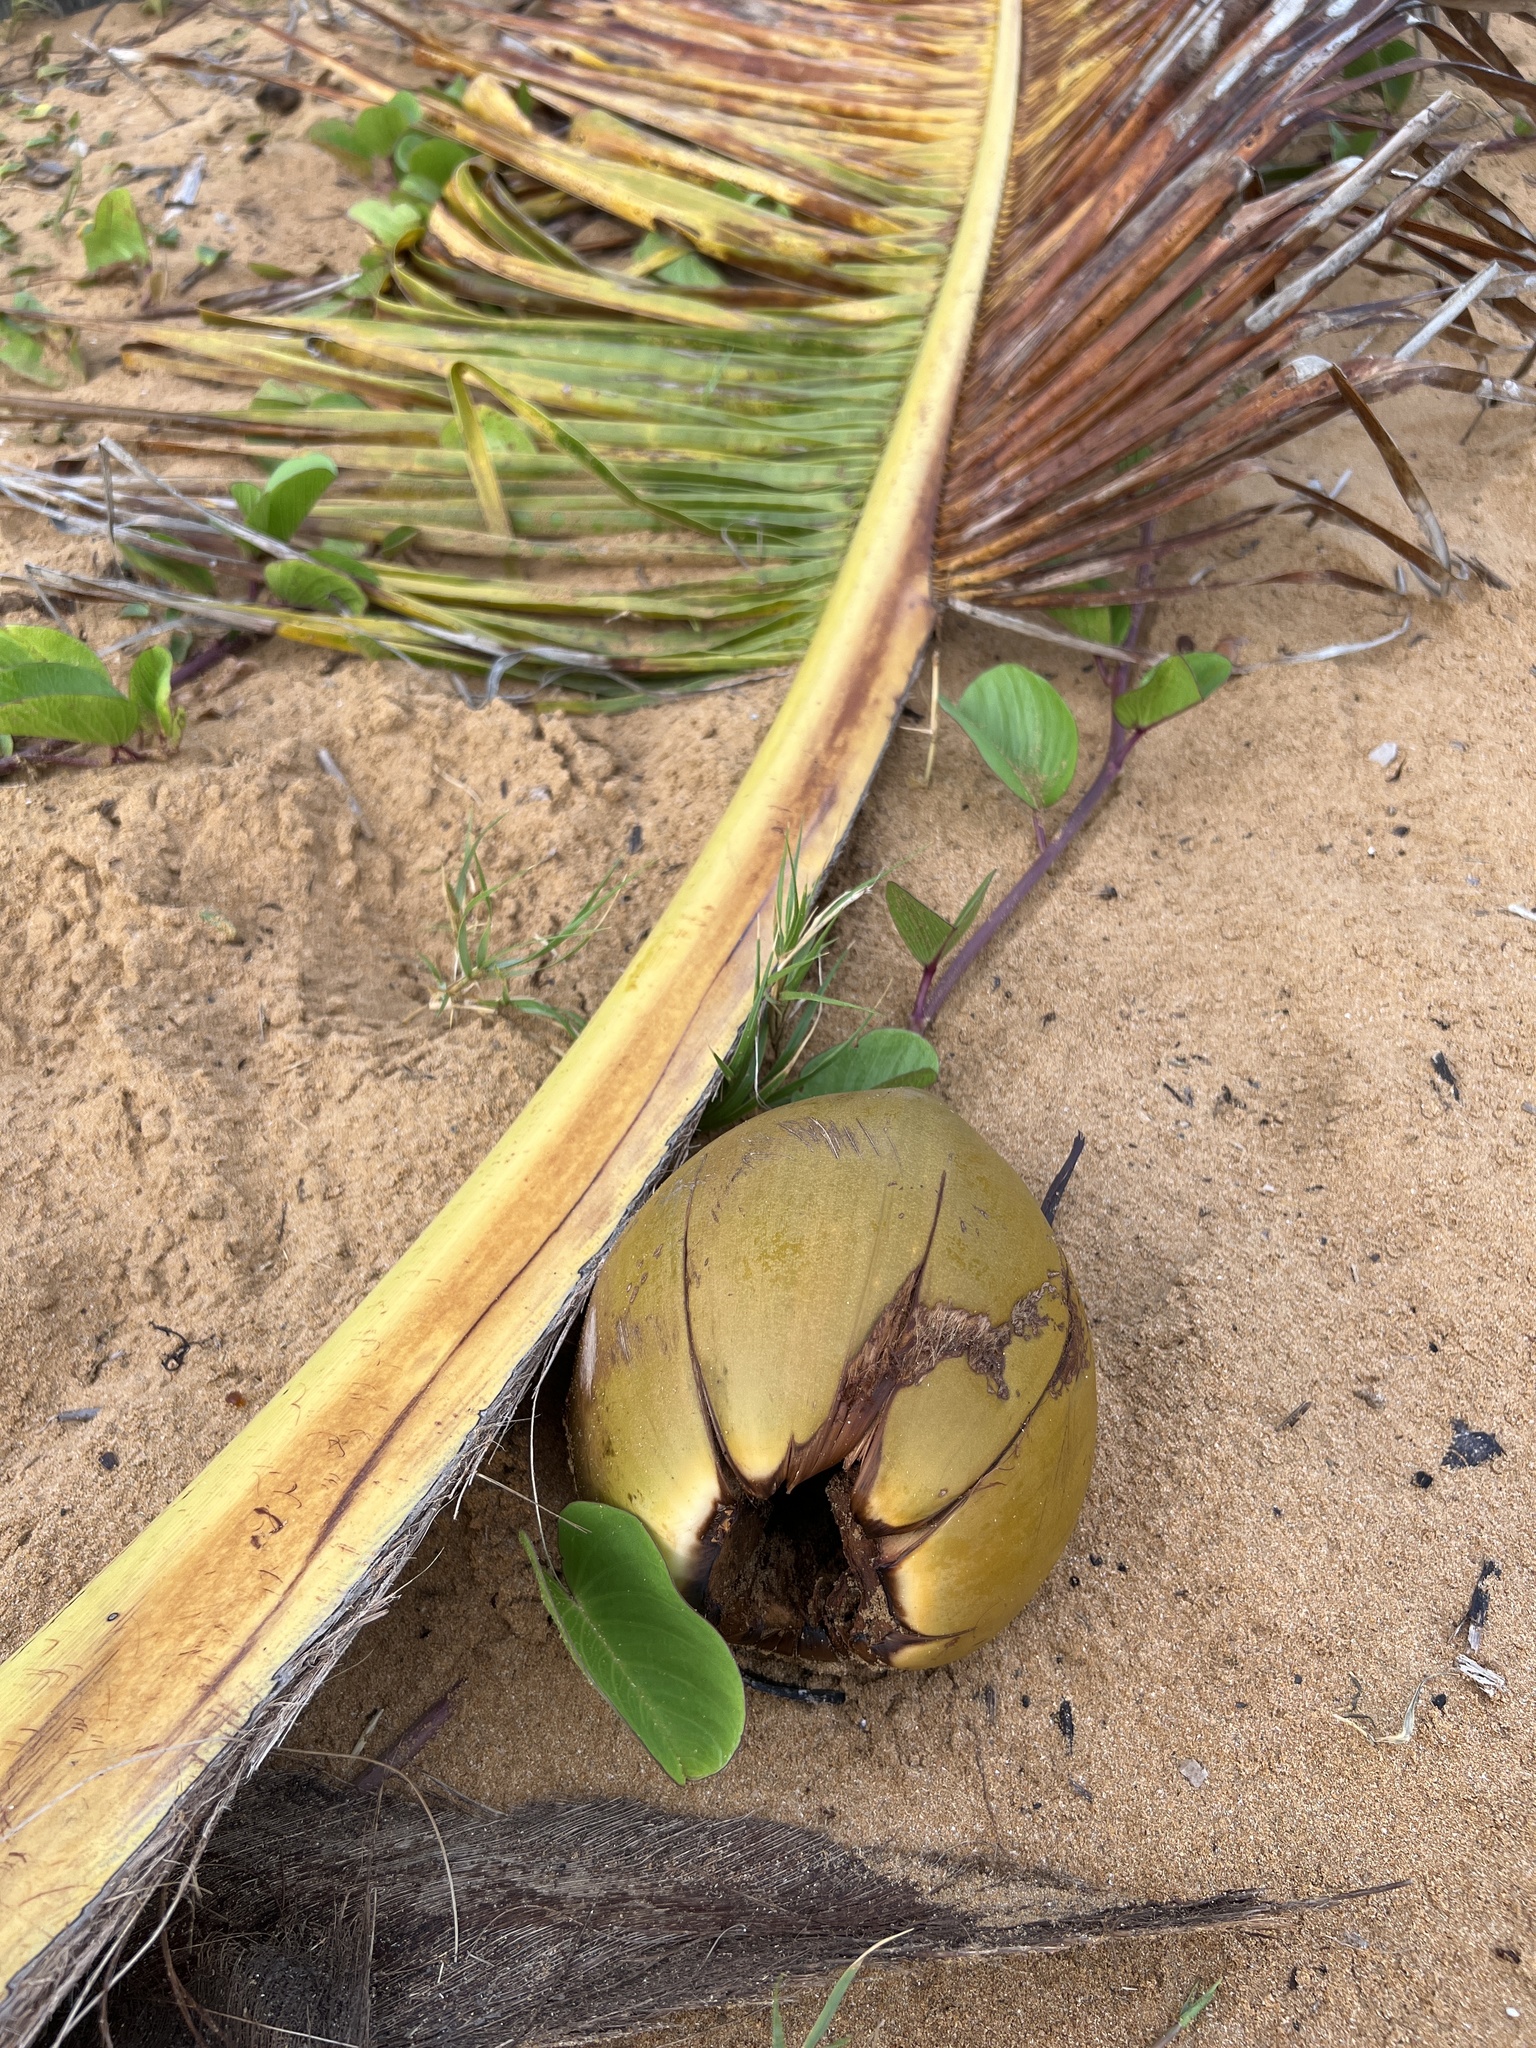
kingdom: Plantae
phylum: Tracheophyta
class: Liliopsida
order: Arecales
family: Arecaceae
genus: Cocos
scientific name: Cocos nucifera
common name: Coconut palm
